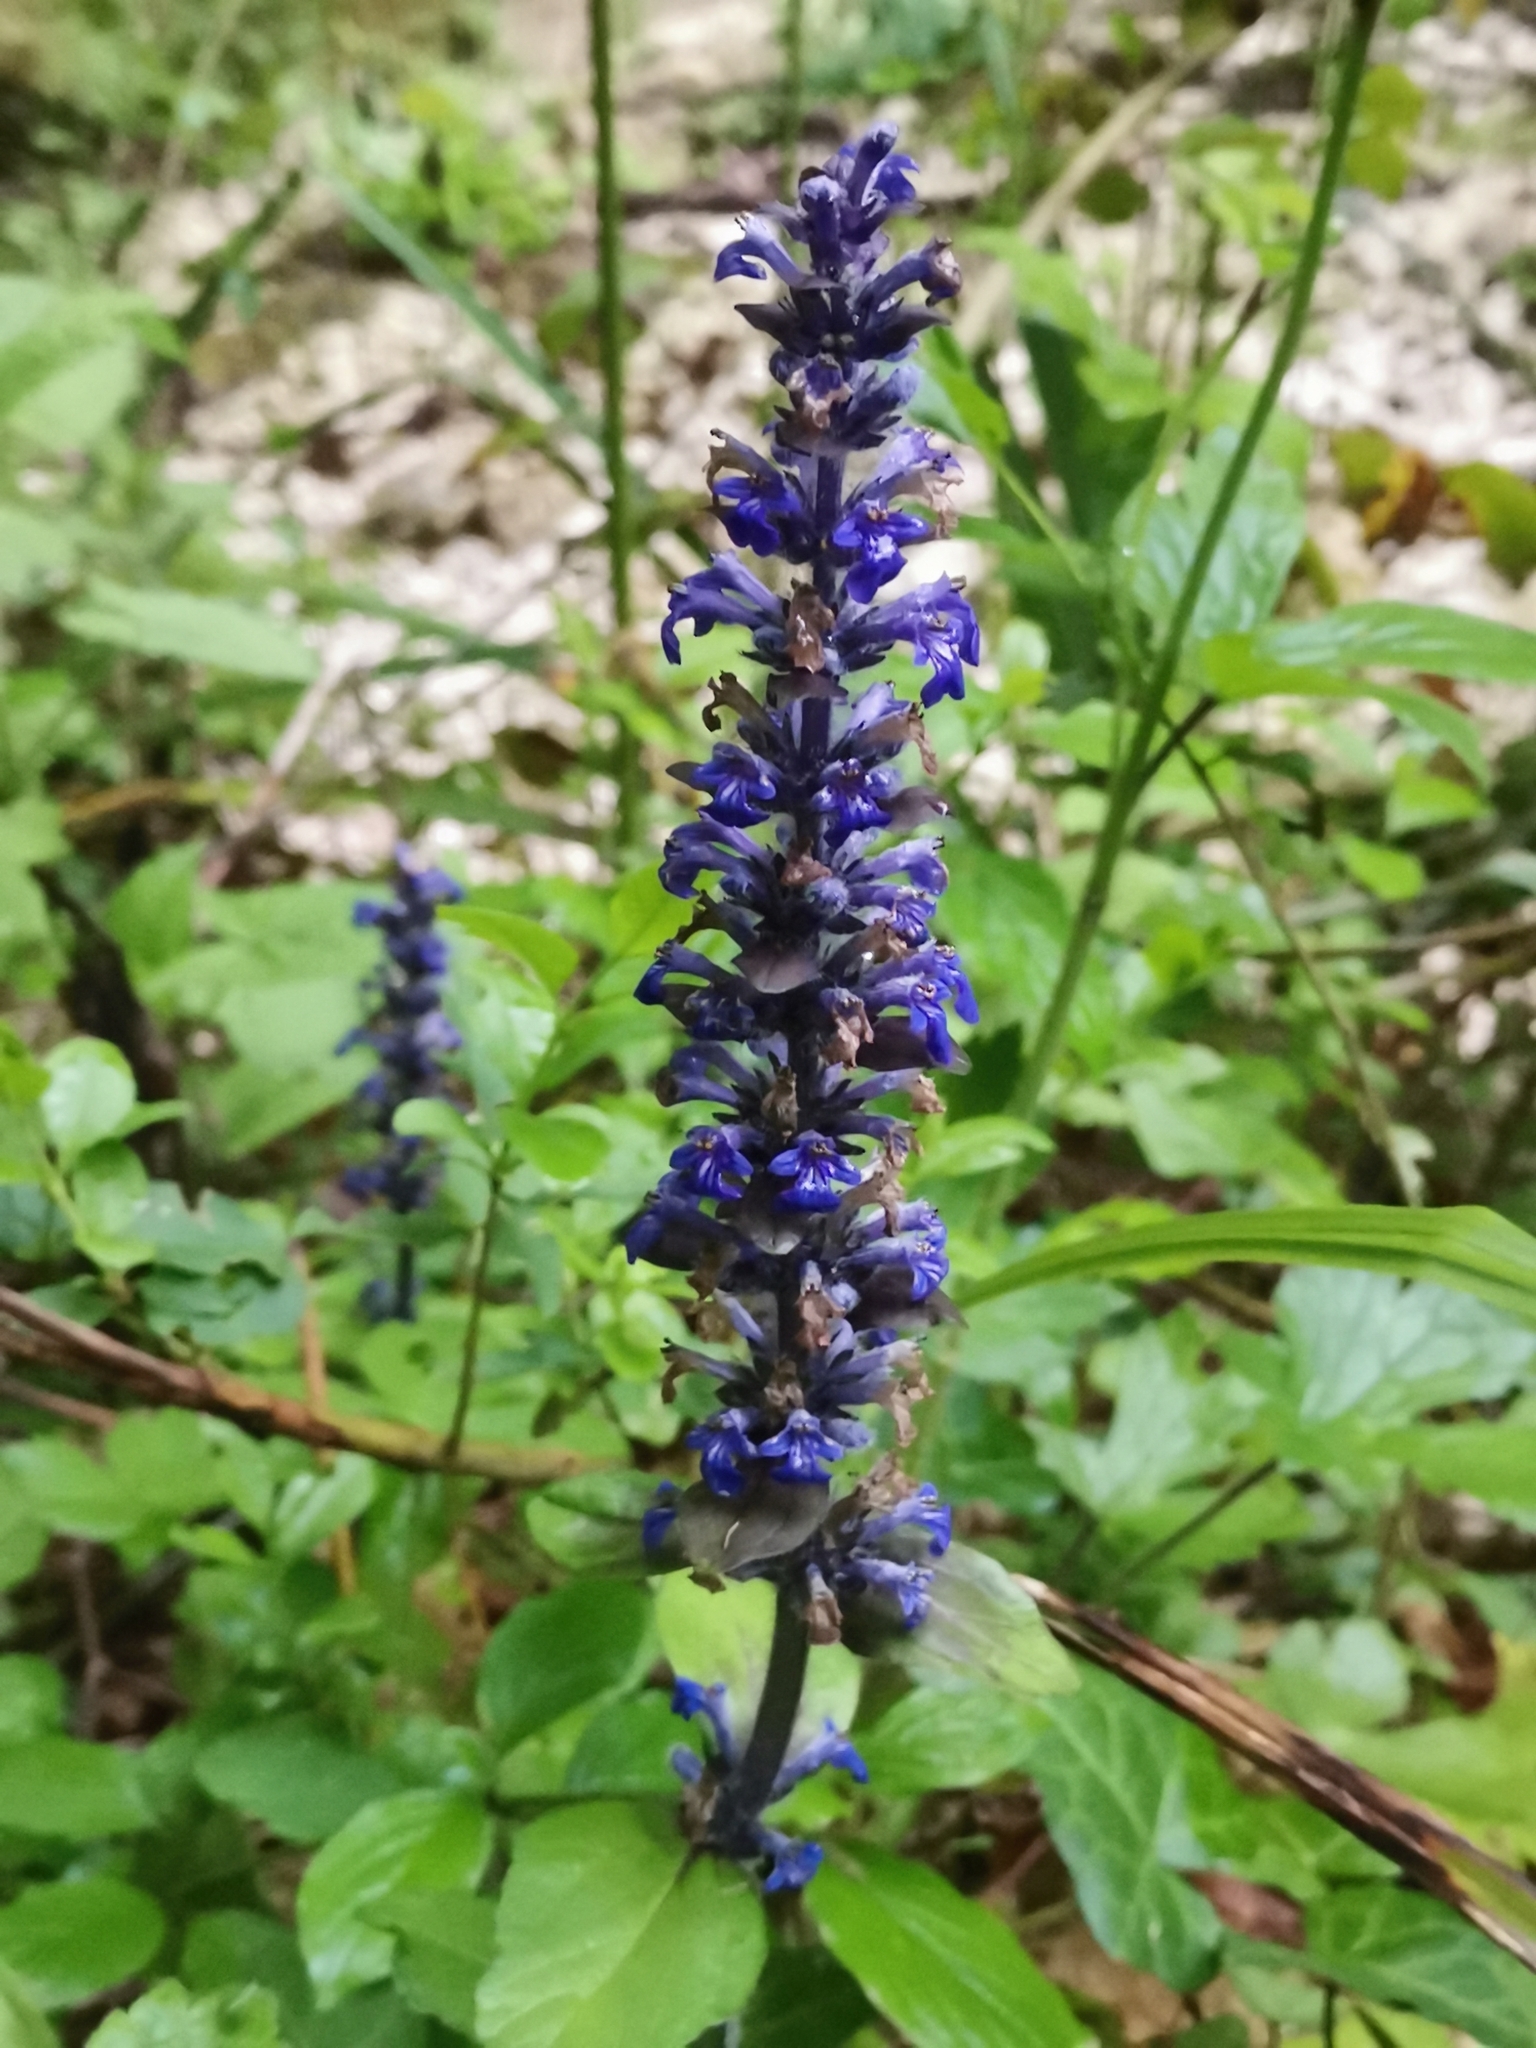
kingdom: Plantae
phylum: Tracheophyta
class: Magnoliopsida
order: Lamiales
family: Lamiaceae
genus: Ajuga
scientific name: Ajuga reptans
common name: Bugle
